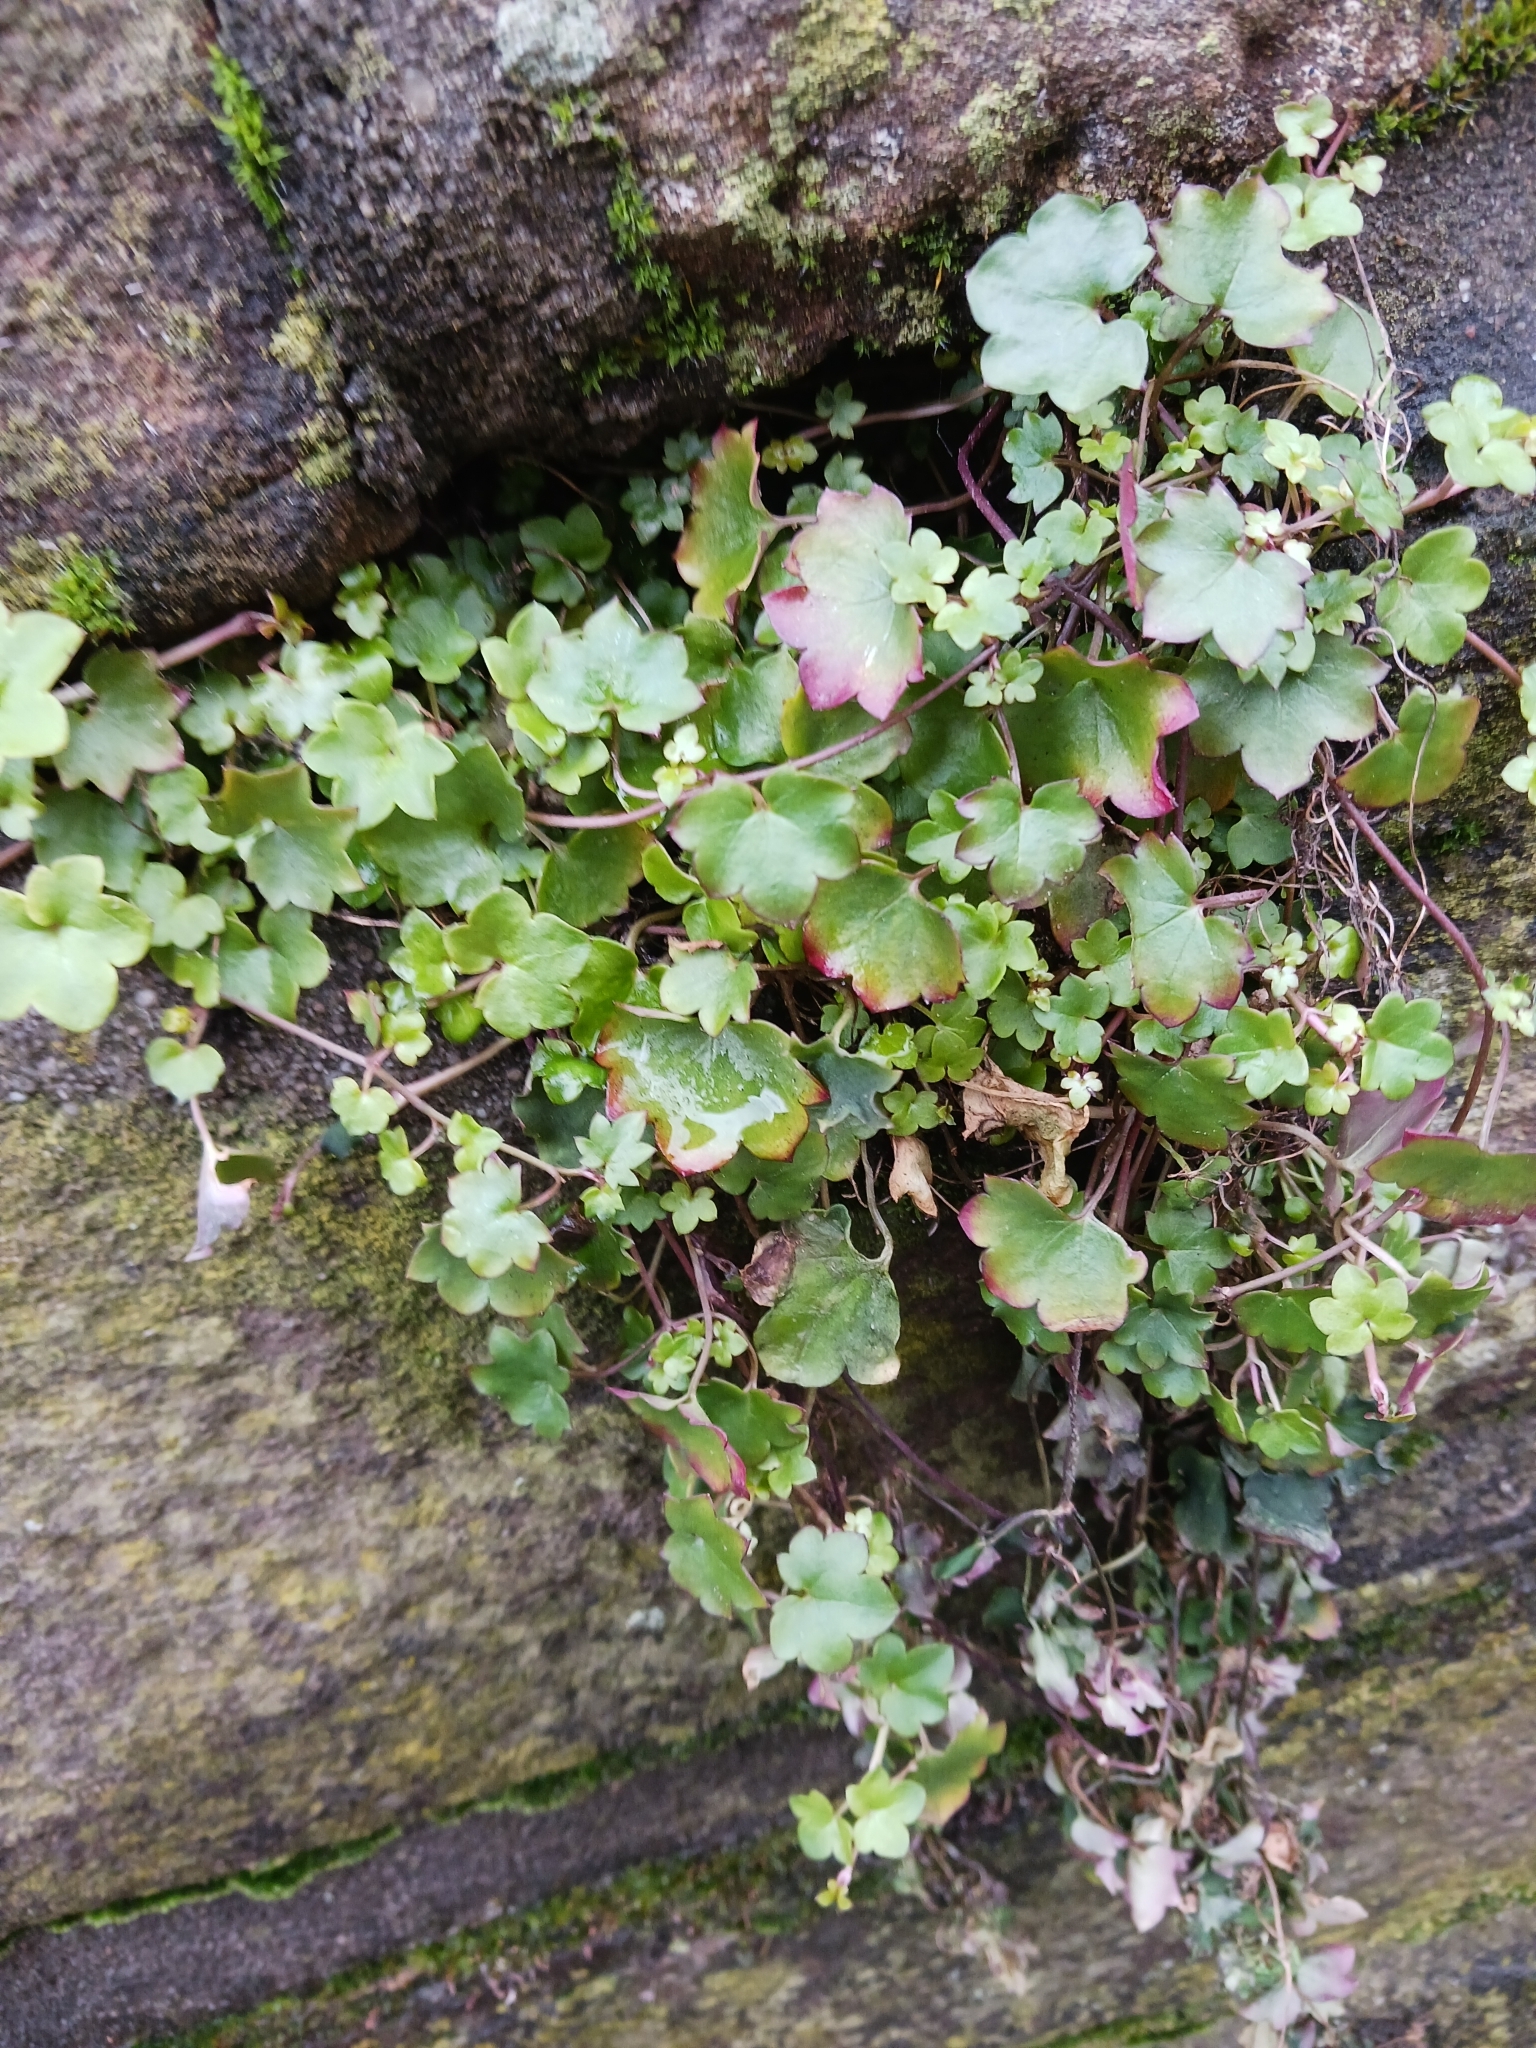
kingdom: Plantae
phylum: Tracheophyta
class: Magnoliopsida
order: Lamiales
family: Plantaginaceae
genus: Cymbalaria
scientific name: Cymbalaria muralis
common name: Ivy-leaved toadflax
